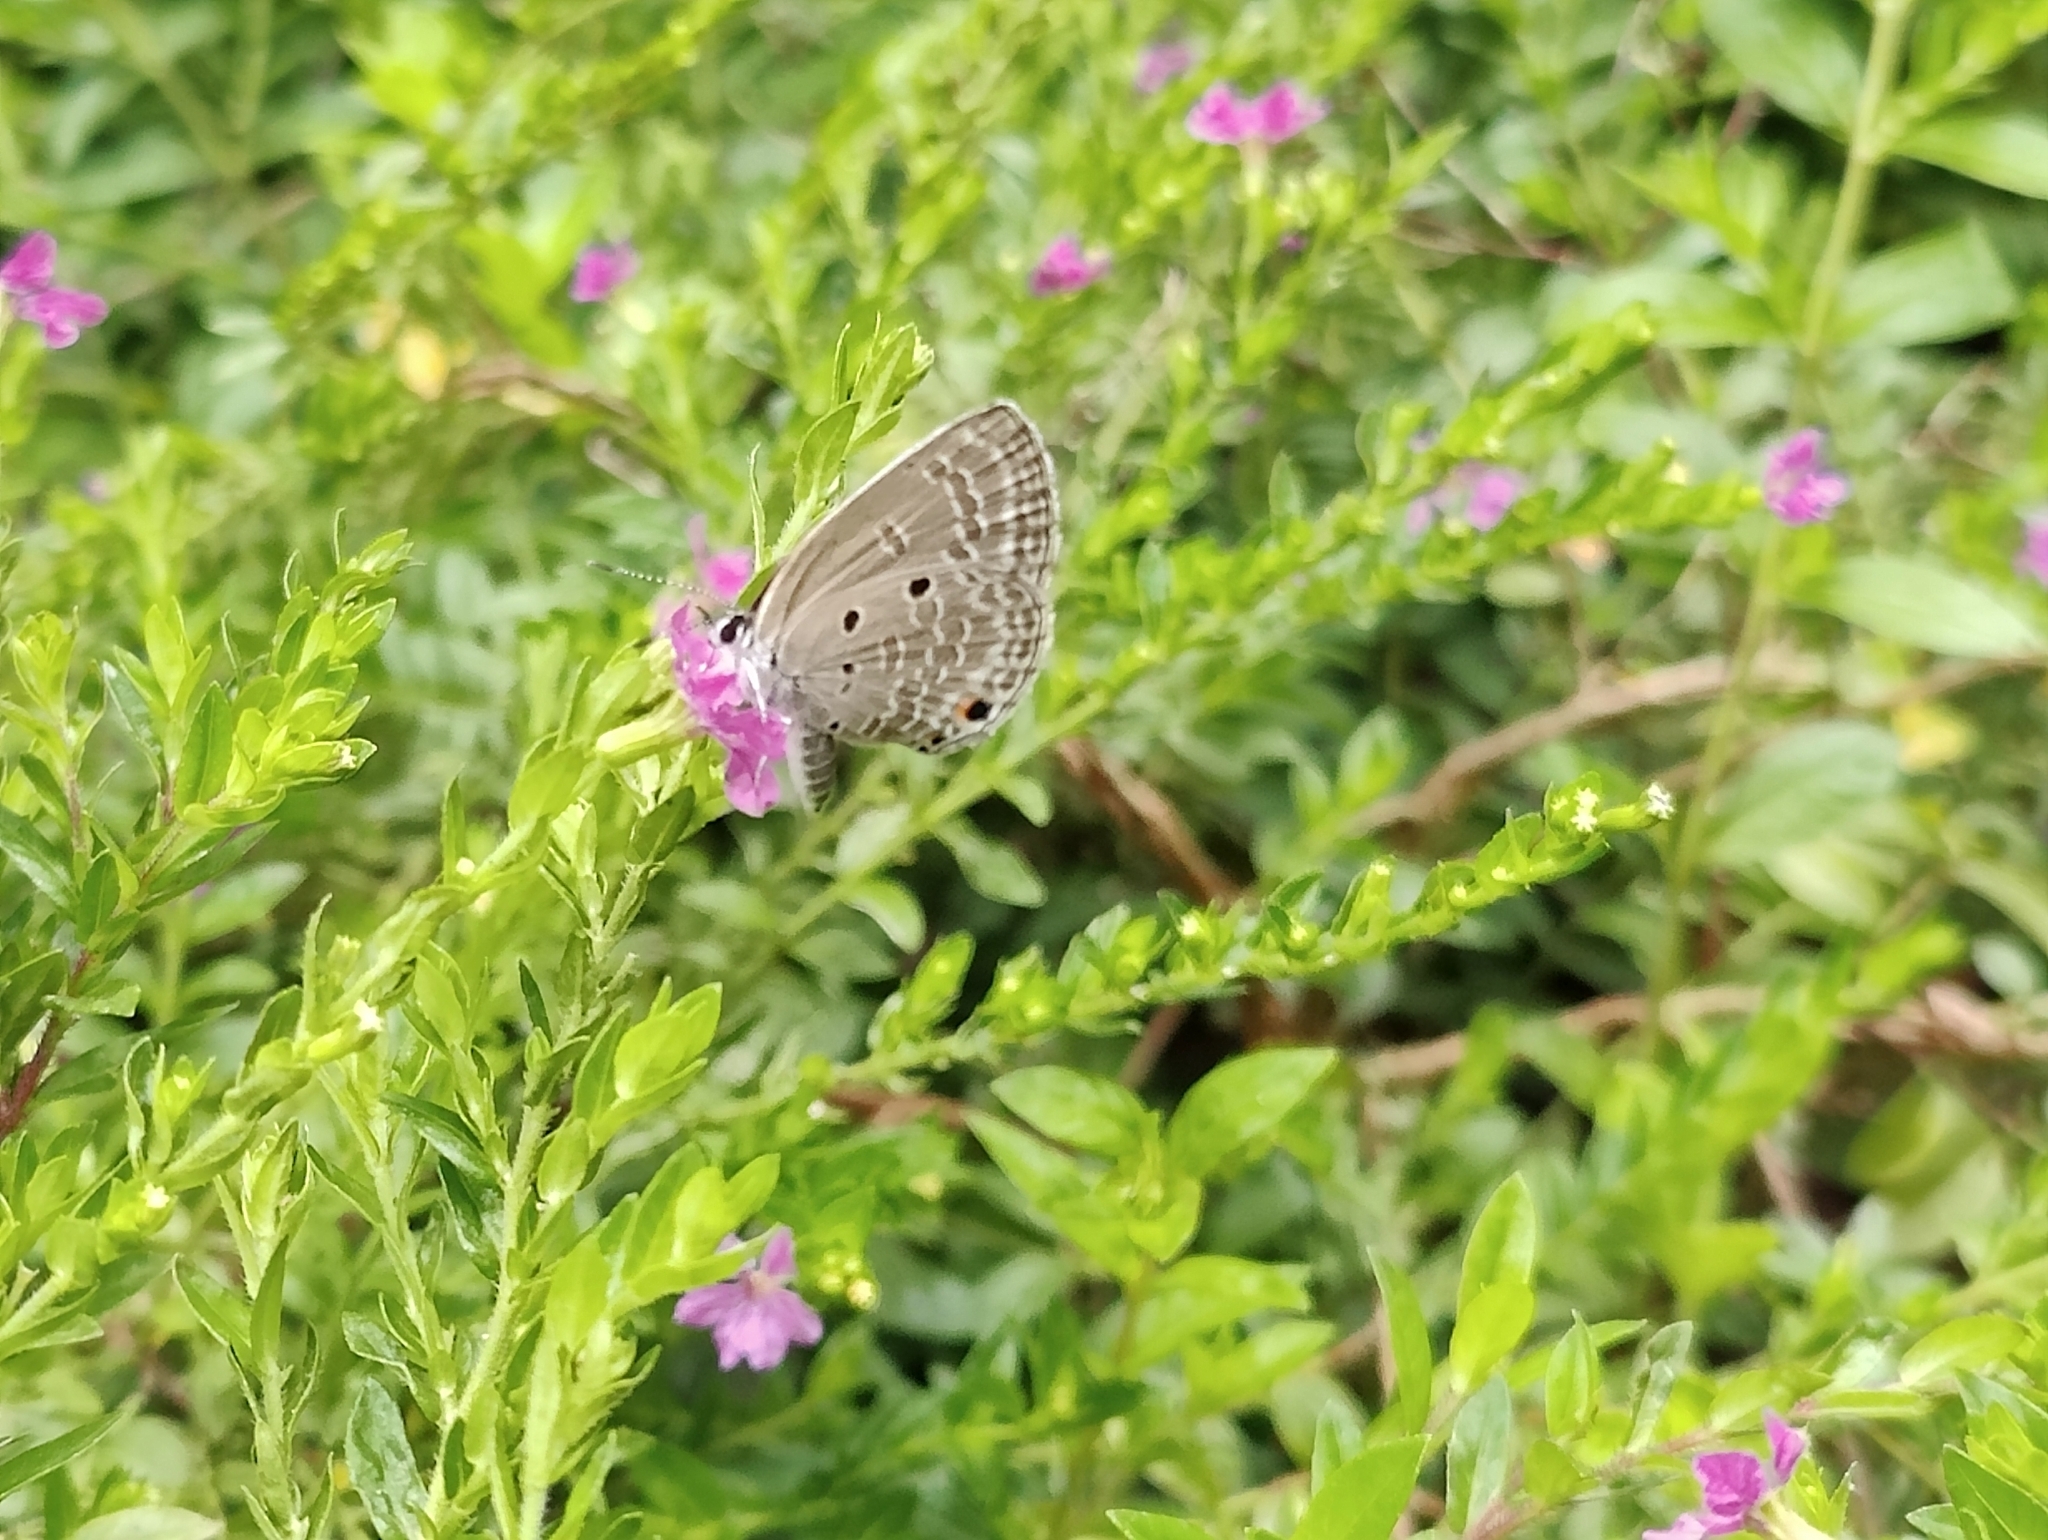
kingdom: Animalia
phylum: Arthropoda
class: Insecta
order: Lepidoptera
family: Lycaenidae
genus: Luthrodes
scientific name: Luthrodes pandava
